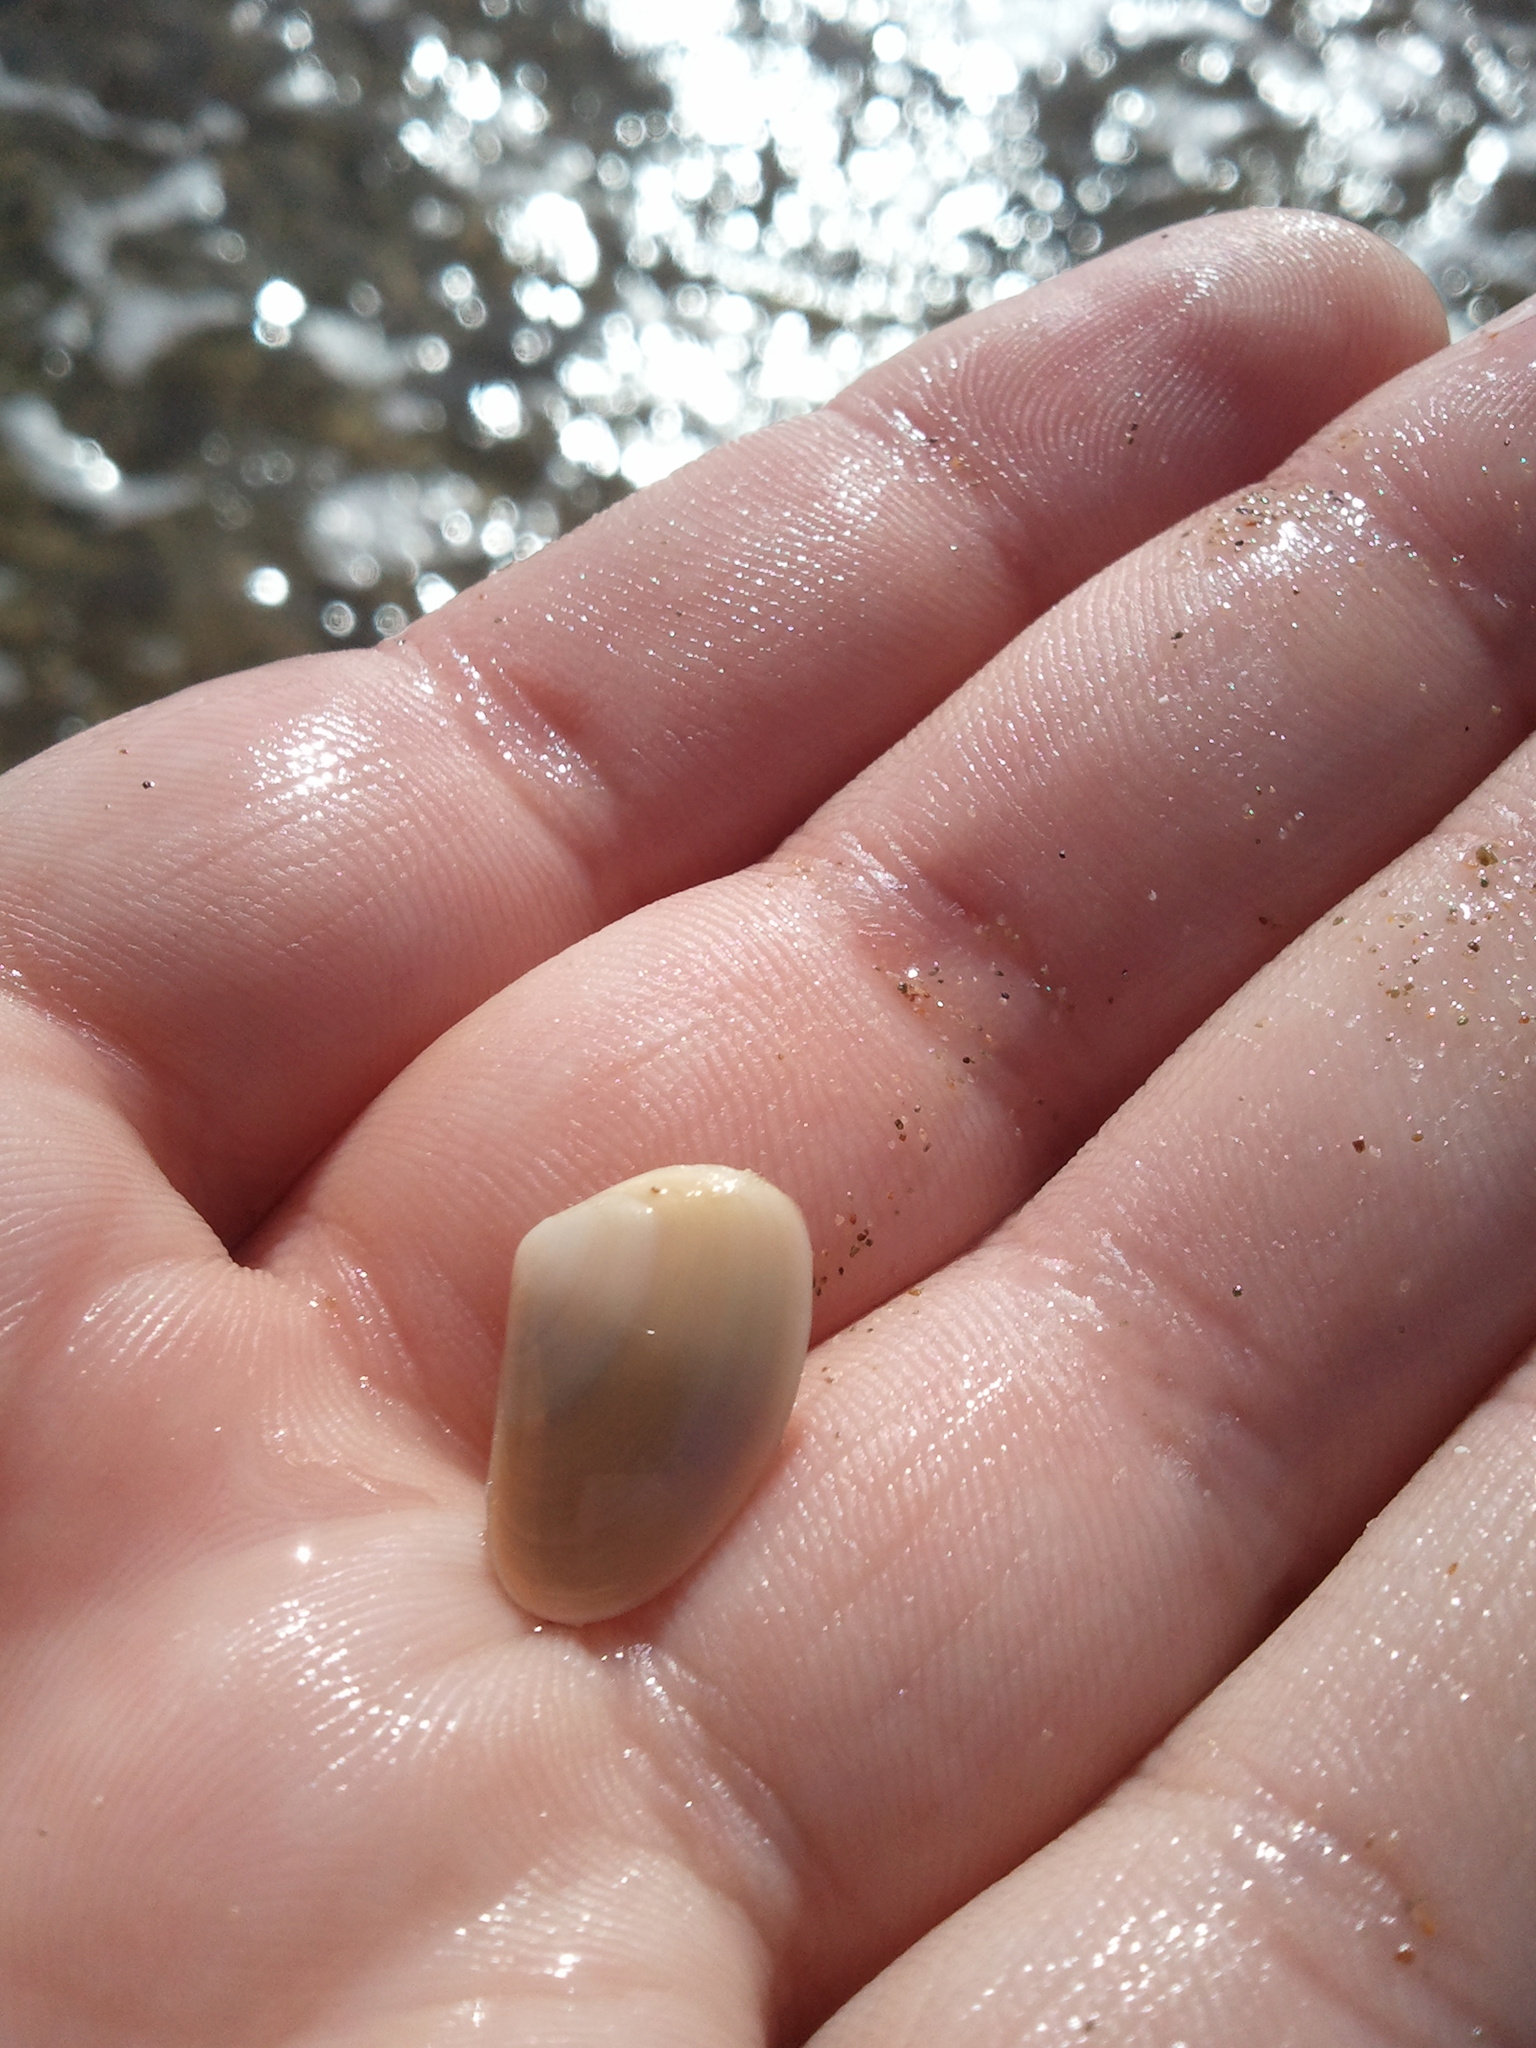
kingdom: Animalia
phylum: Mollusca
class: Bivalvia
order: Venerida
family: Mesodesmatidae
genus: Mesodesma
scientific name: Mesodesma arctatum
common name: Compressed clam
